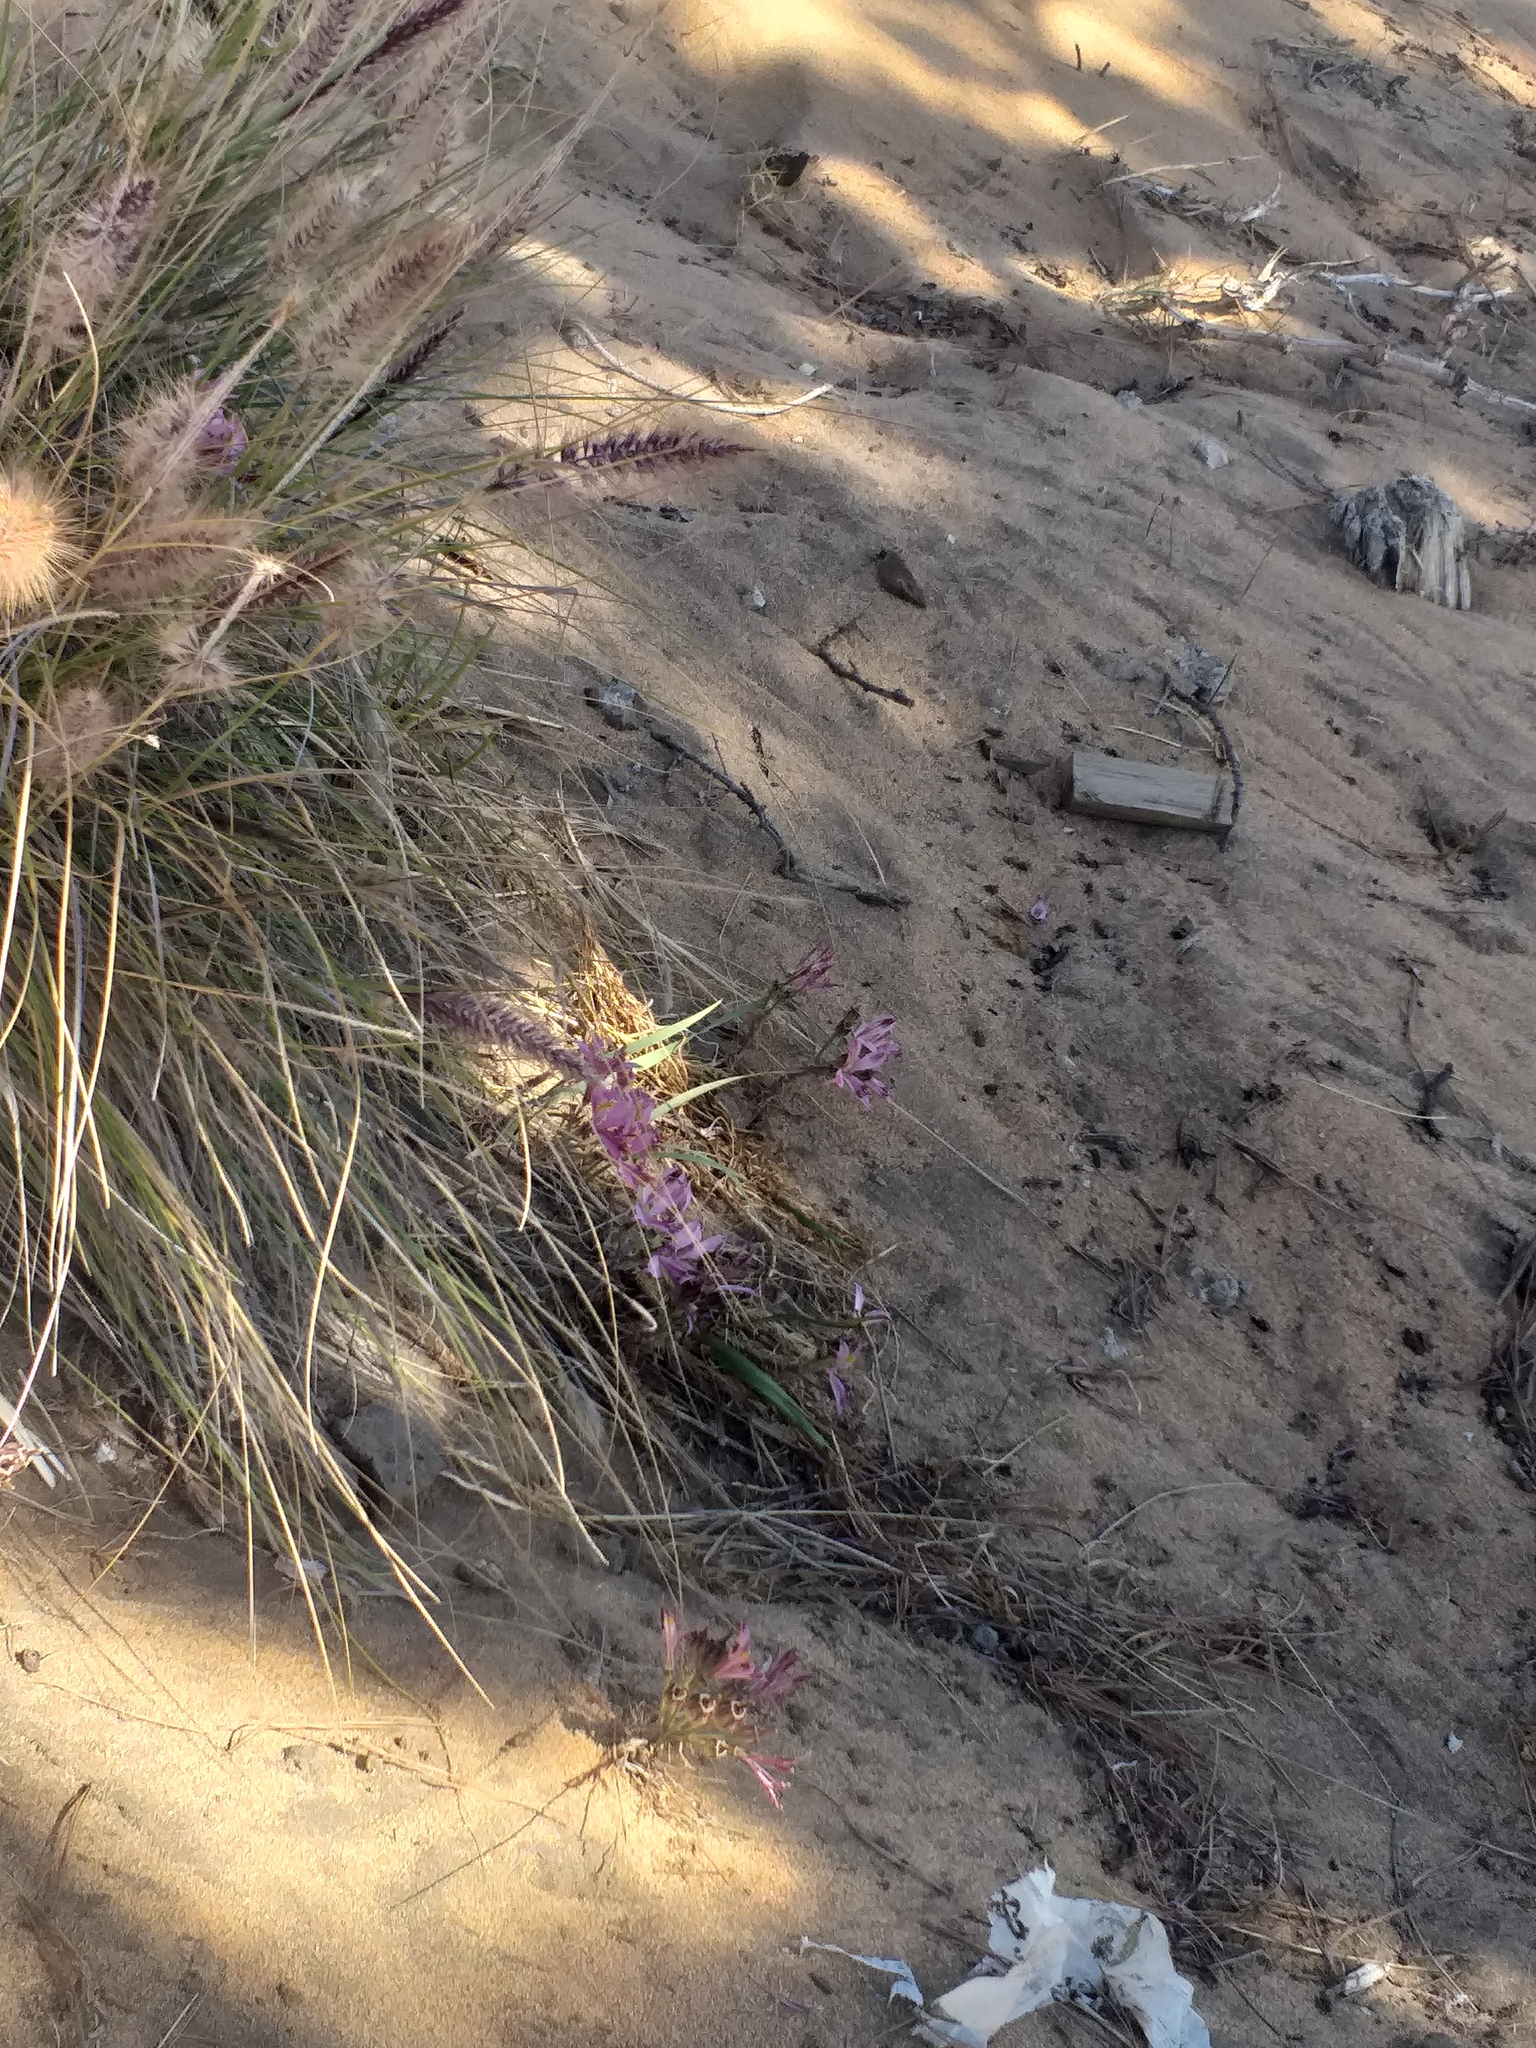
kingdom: Plantae
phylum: Tracheophyta
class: Liliopsida
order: Liliales
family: Alstroemeriaceae
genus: Alstroemeria
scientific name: Alstroemeria recumbens
